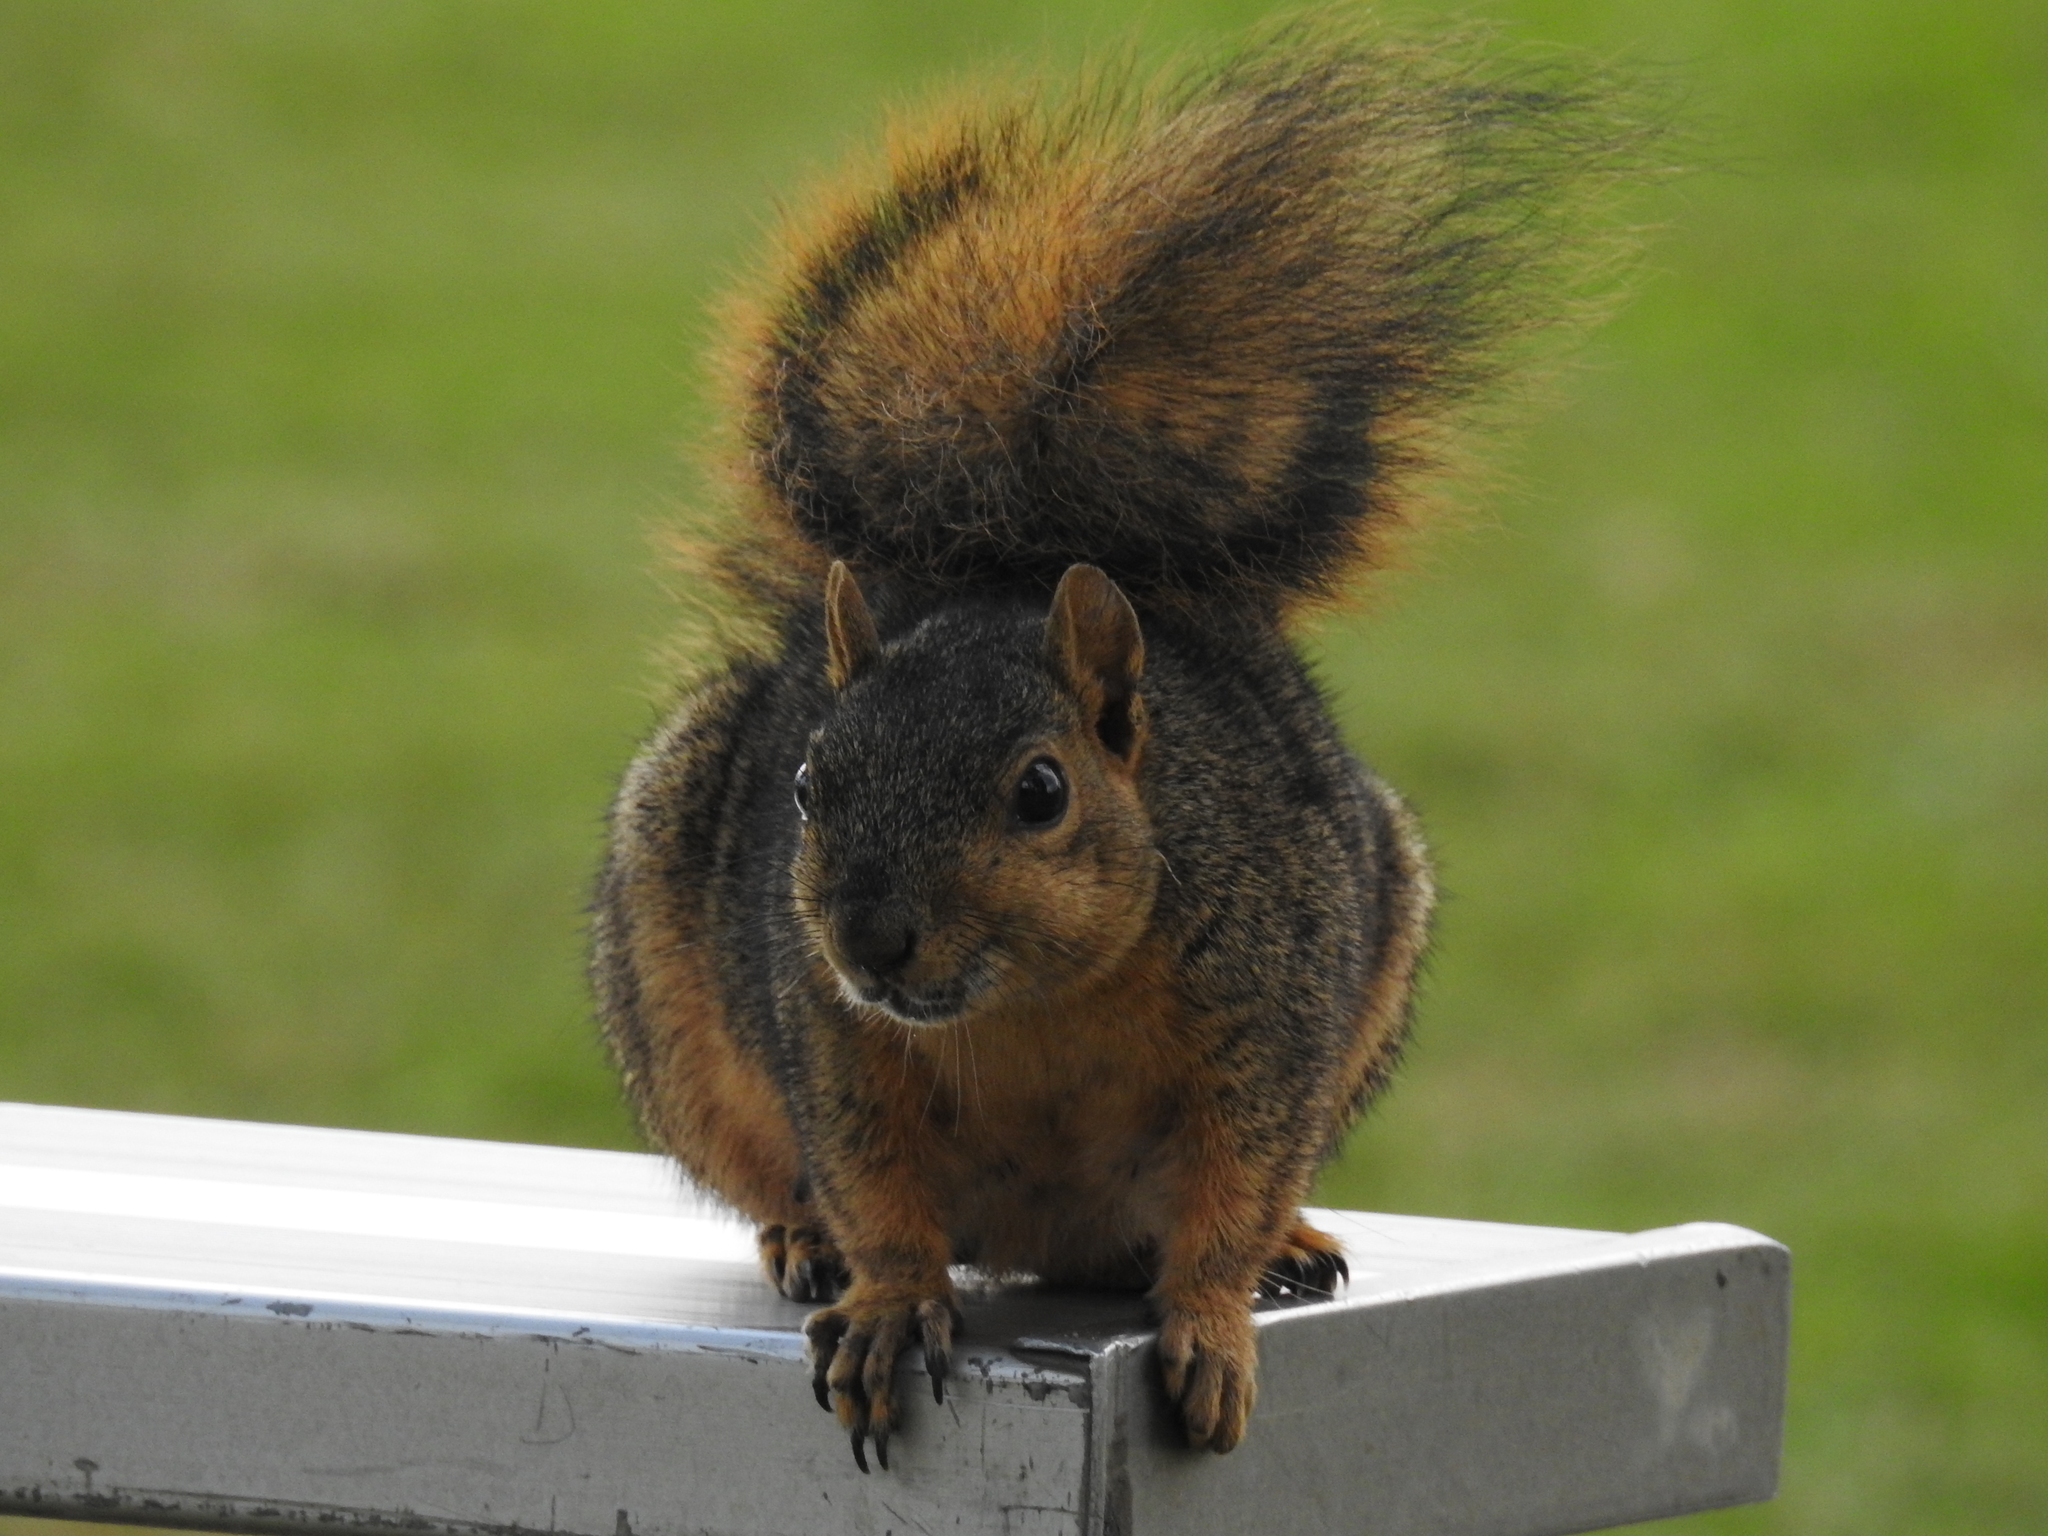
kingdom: Animalia
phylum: Chordata
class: Mammalia
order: Rodentia
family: Sciuridae
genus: Sciurus
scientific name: Sciurus niger
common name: Fox squirrel
